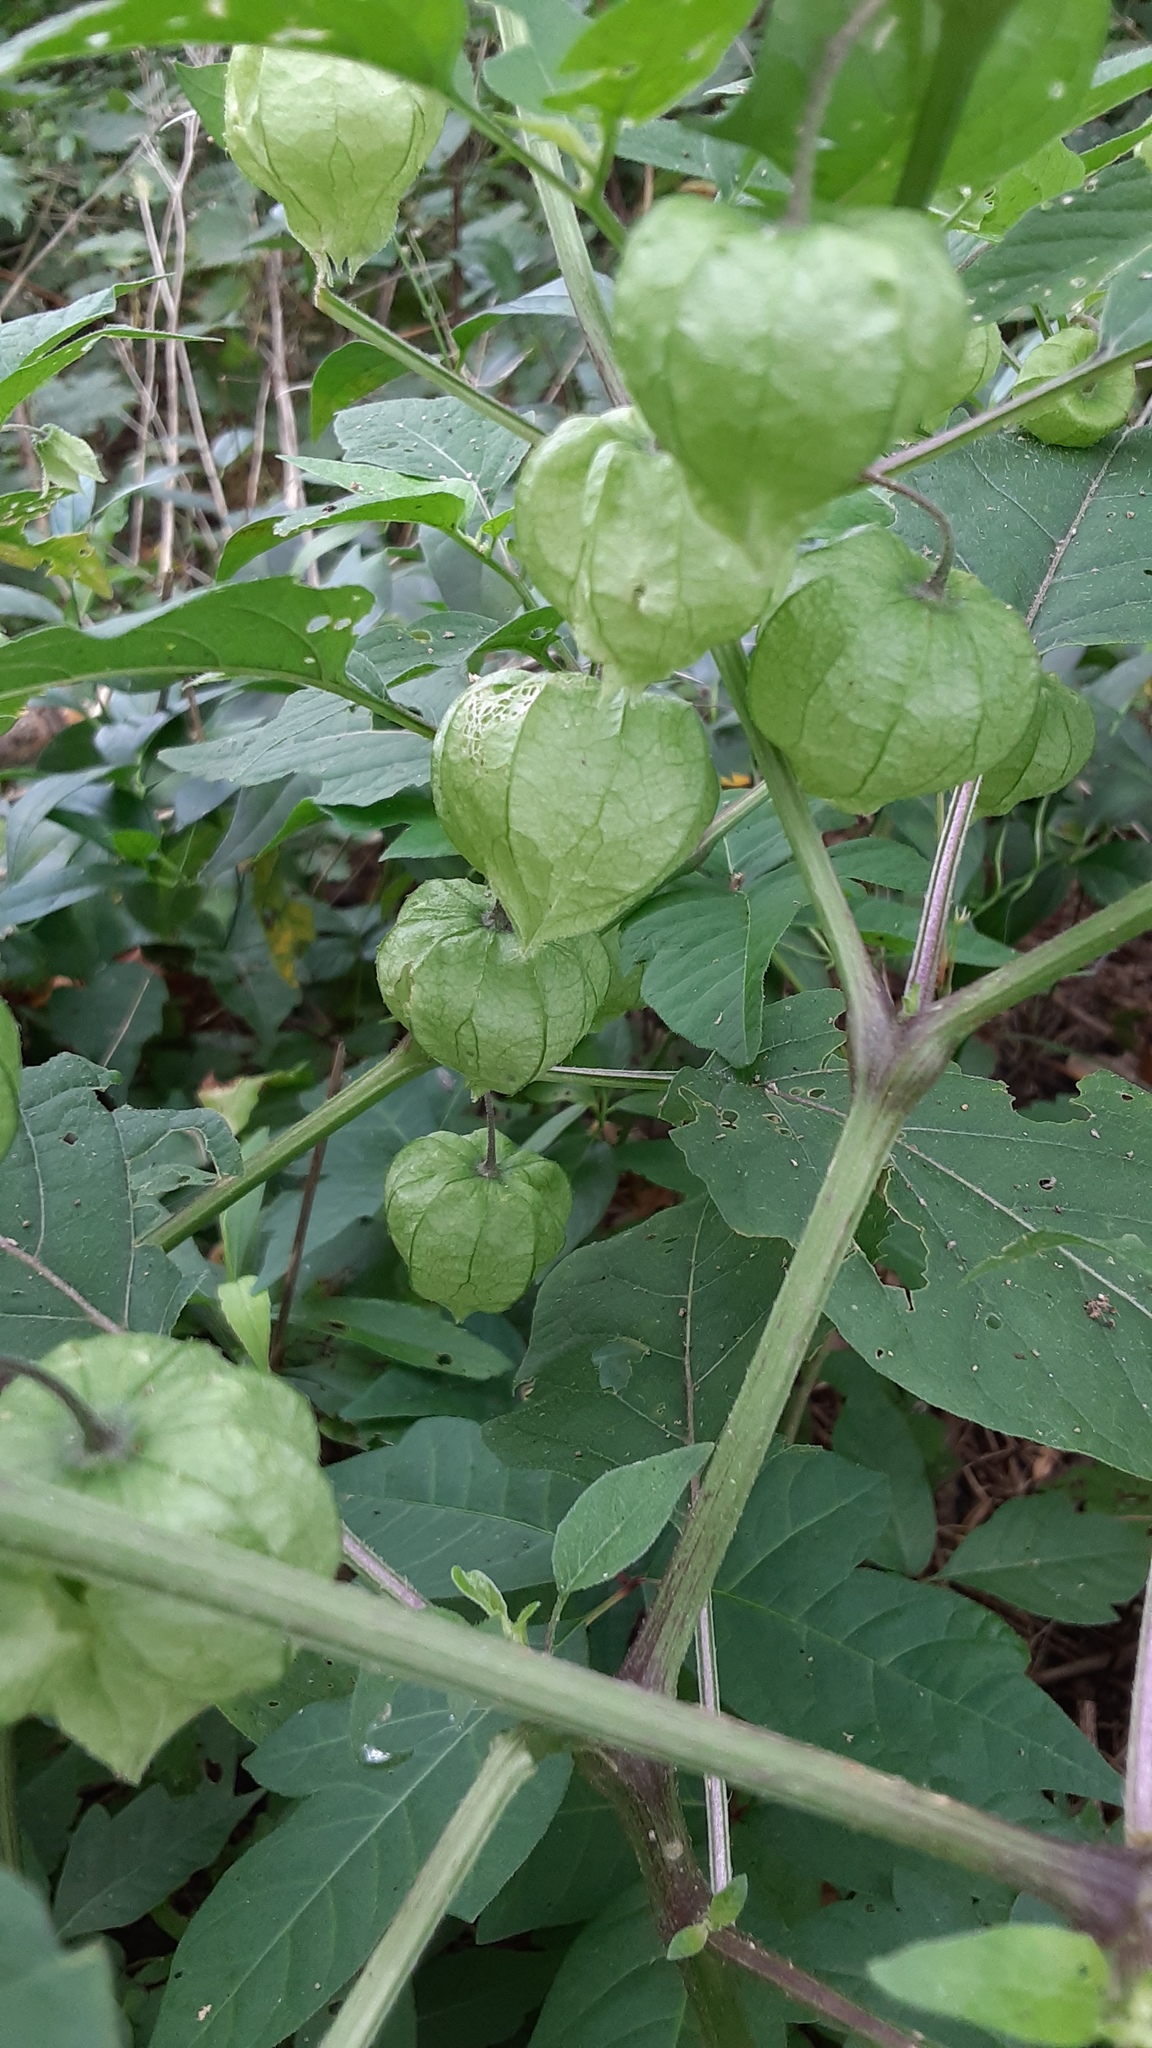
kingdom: Plantae
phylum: Tracheophyta
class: Magnoliopsida
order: Solanales
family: Solanaceae
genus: Physalis
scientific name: Physalis longifolia
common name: Common ground-cherry
